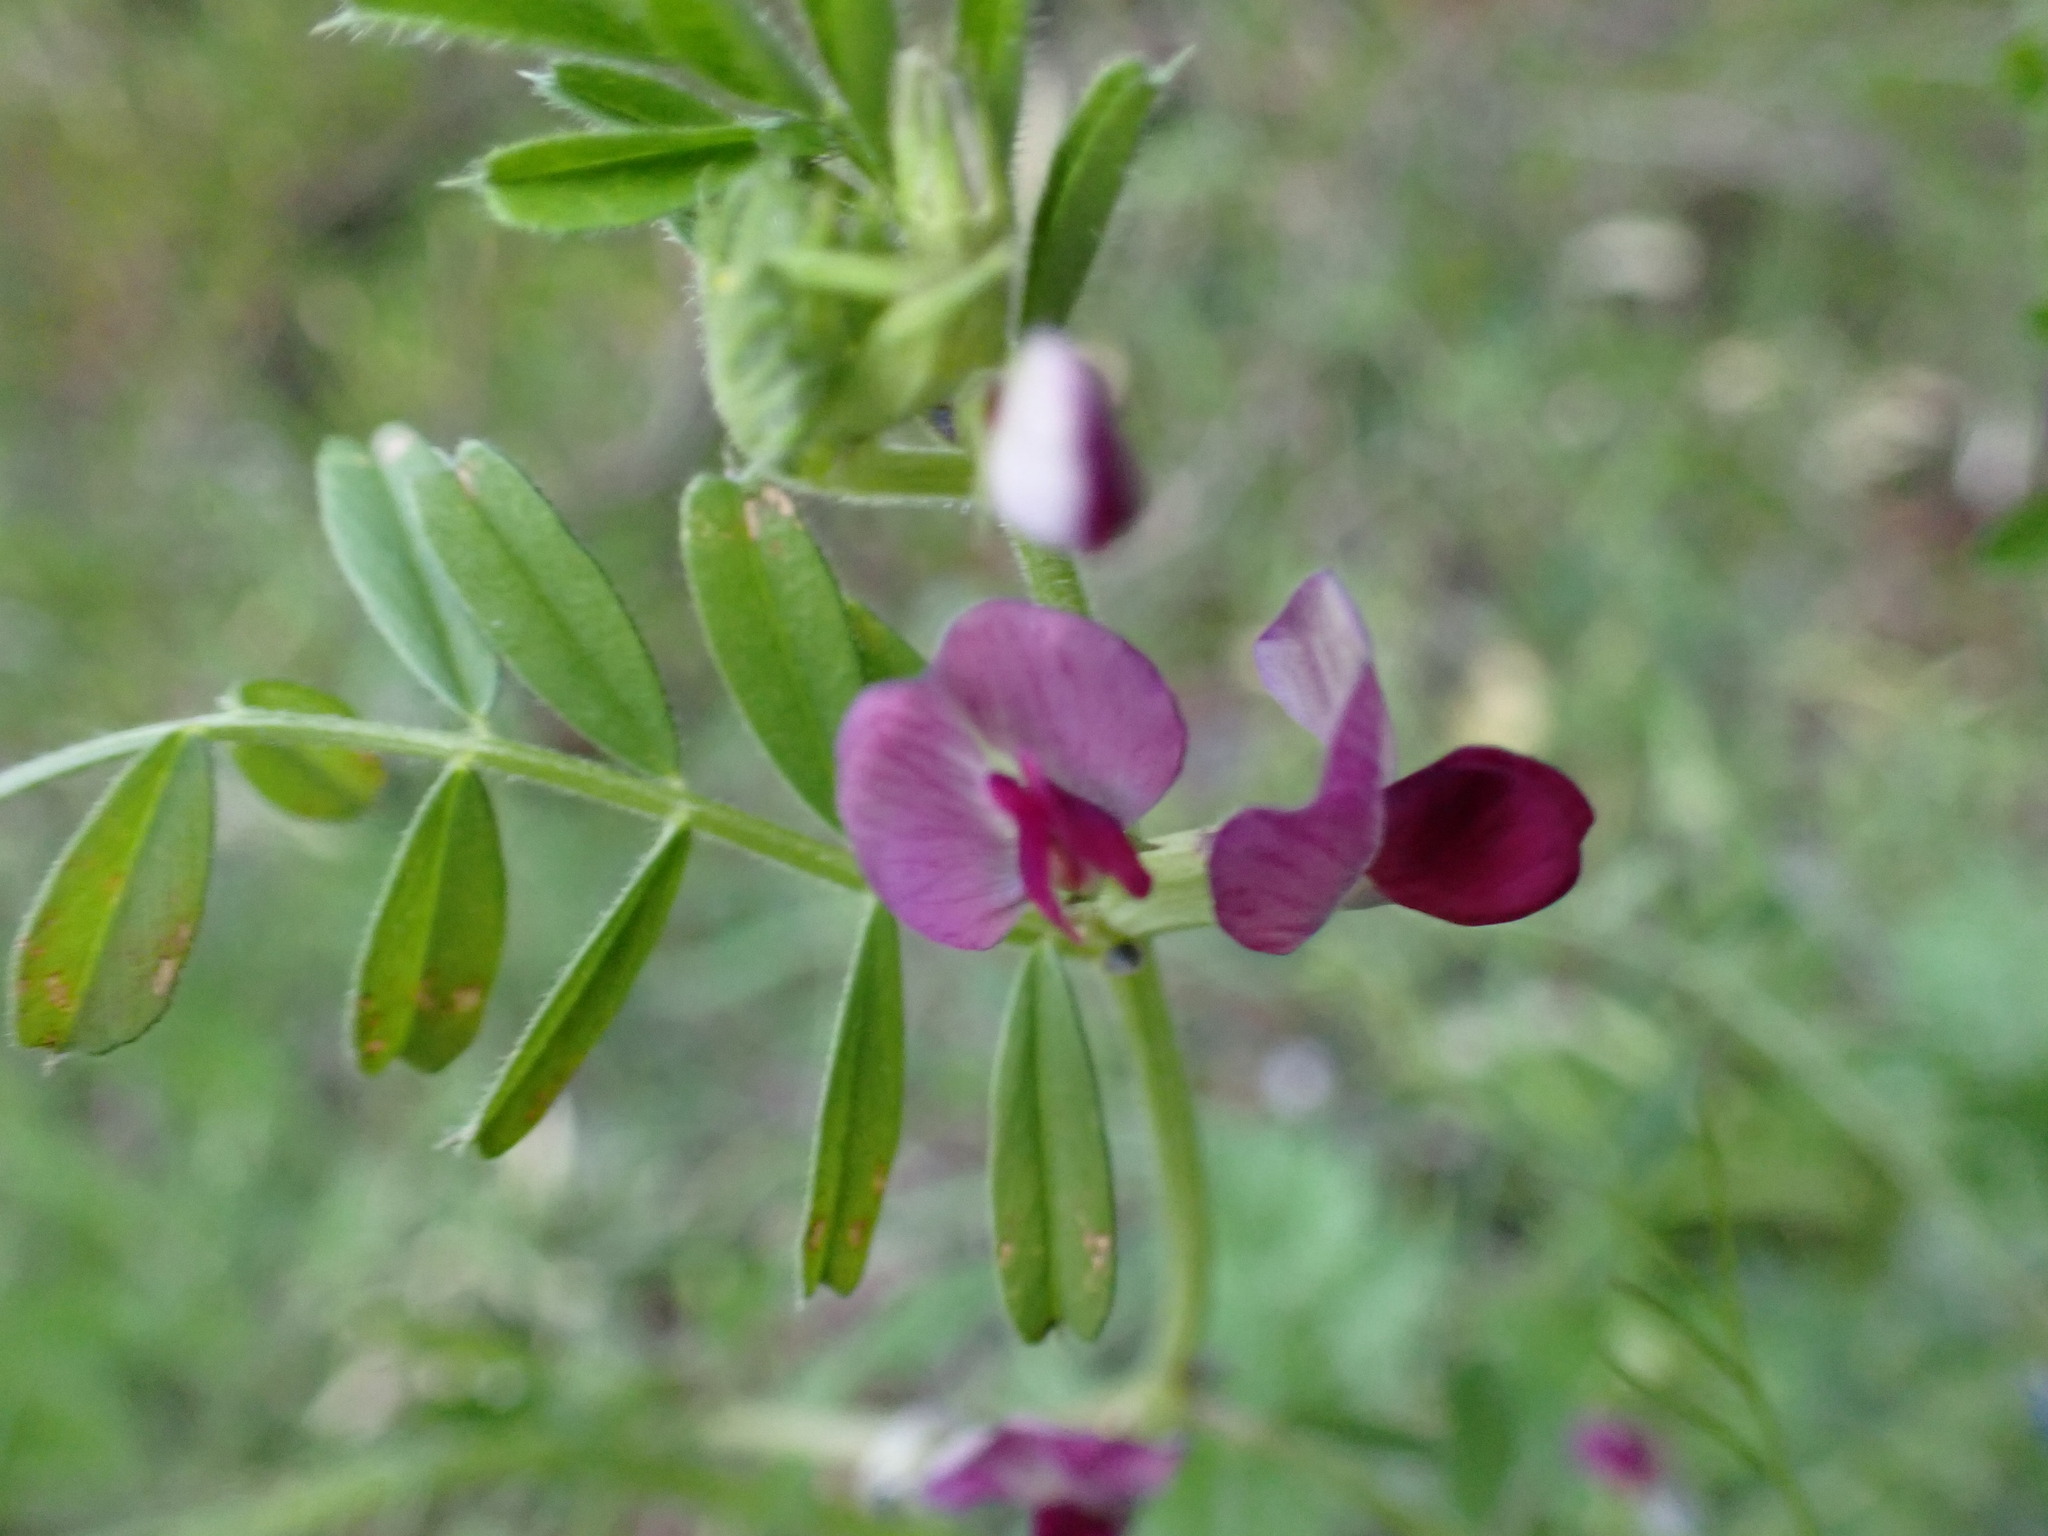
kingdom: Plantae
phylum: Tracheophyta
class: Magnoliopsida
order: Fabales
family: Fabaceae
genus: Vicia
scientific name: Vicia sativa
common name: Garden vetch
